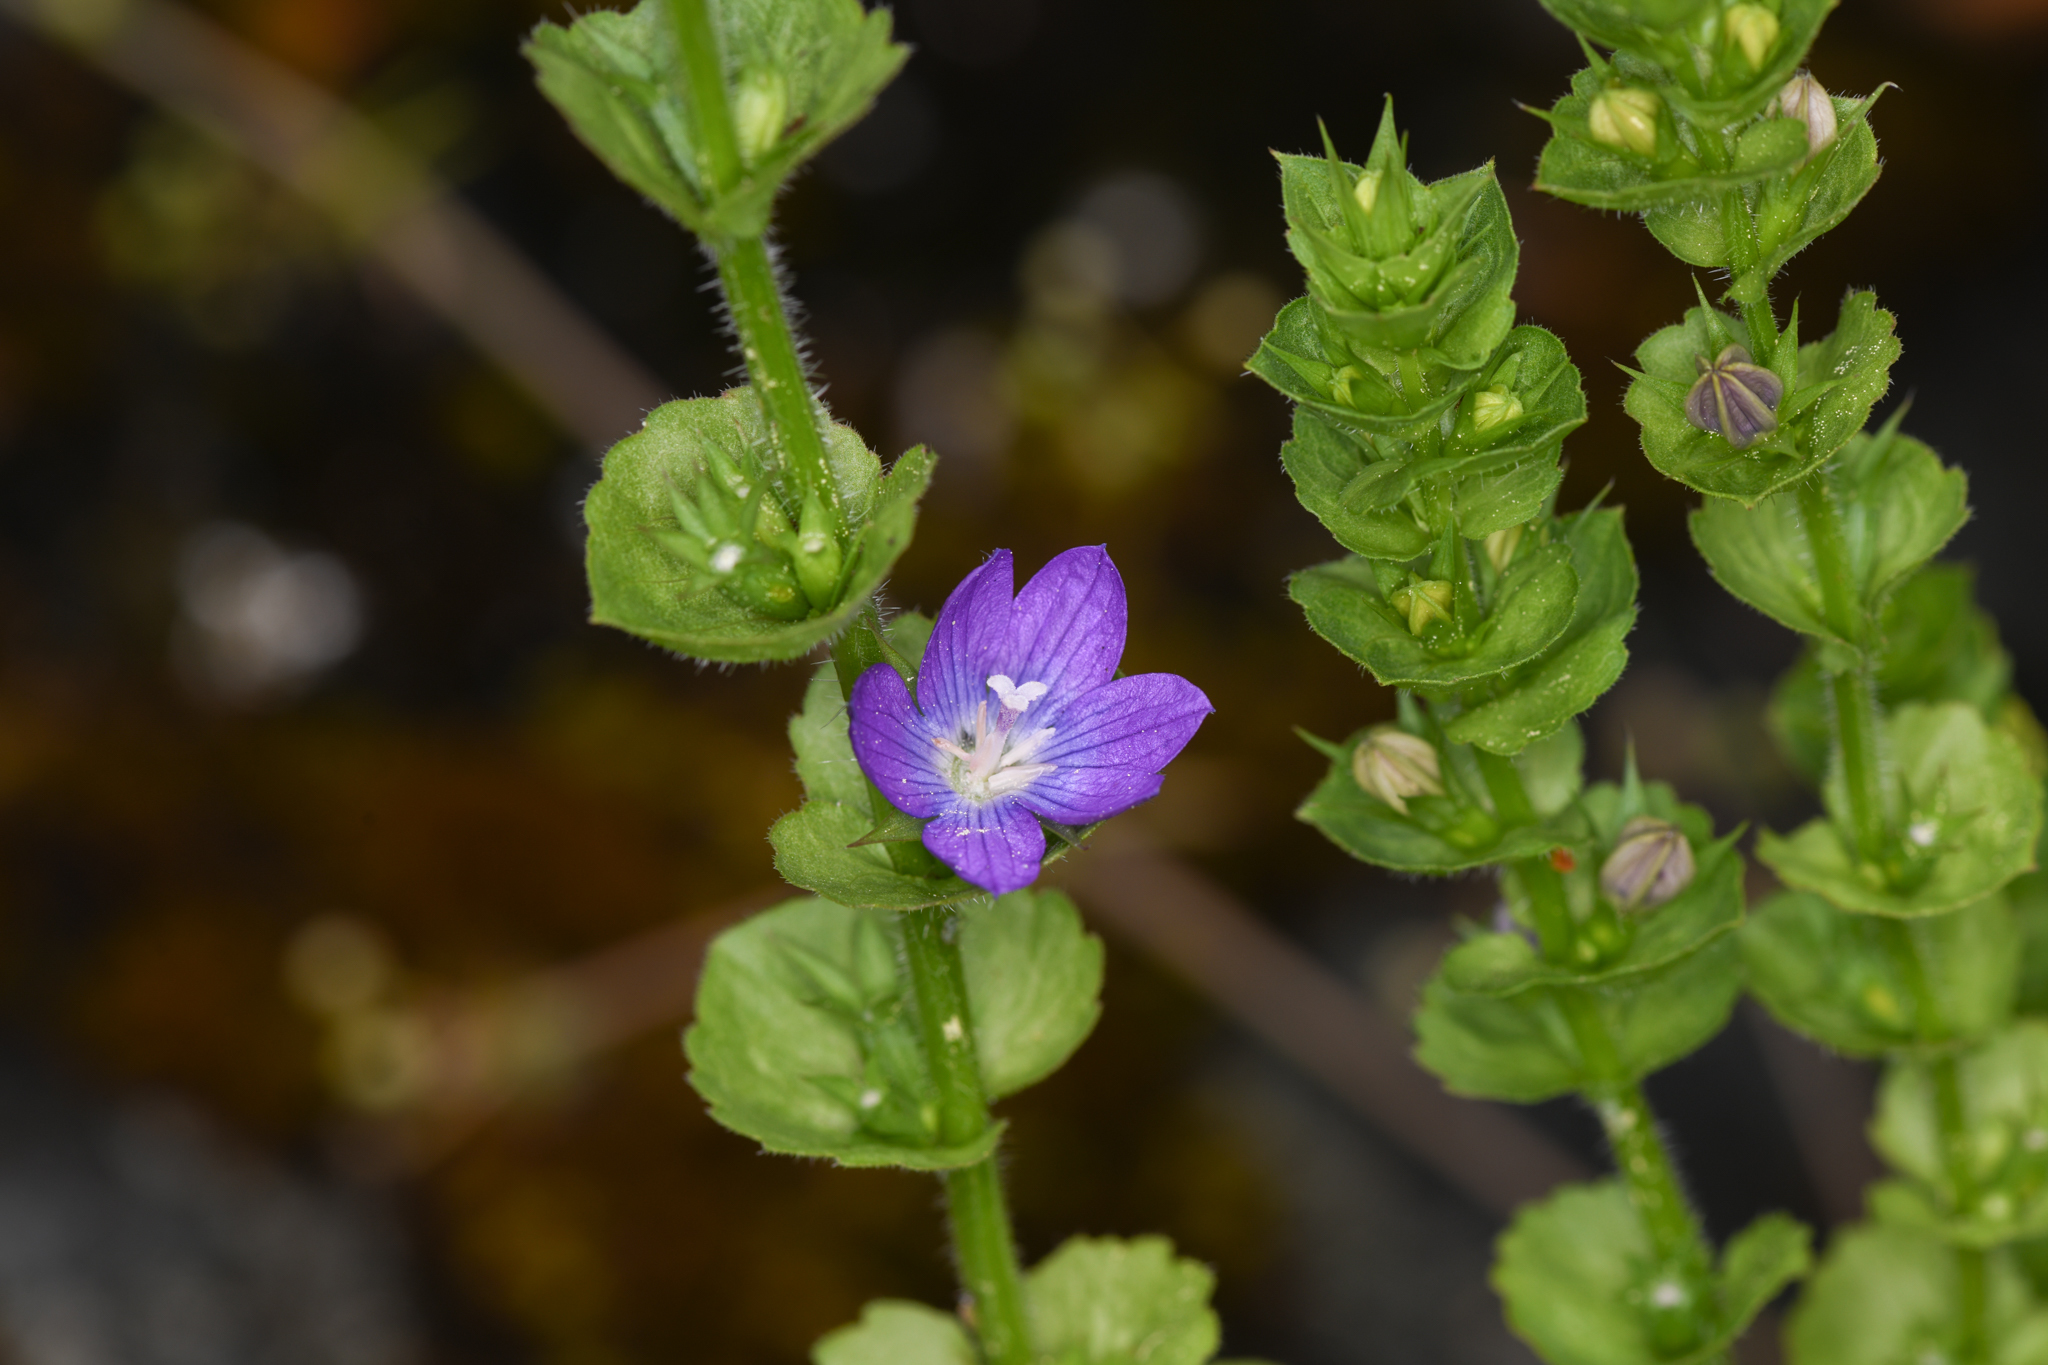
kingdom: Plantae
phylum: Tracheophyta
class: Magnoliopsida
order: Asterales
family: Campanulaceae
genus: Triodanis
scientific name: Triodanis perfoliata
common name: Clasping venus' looking-glass
